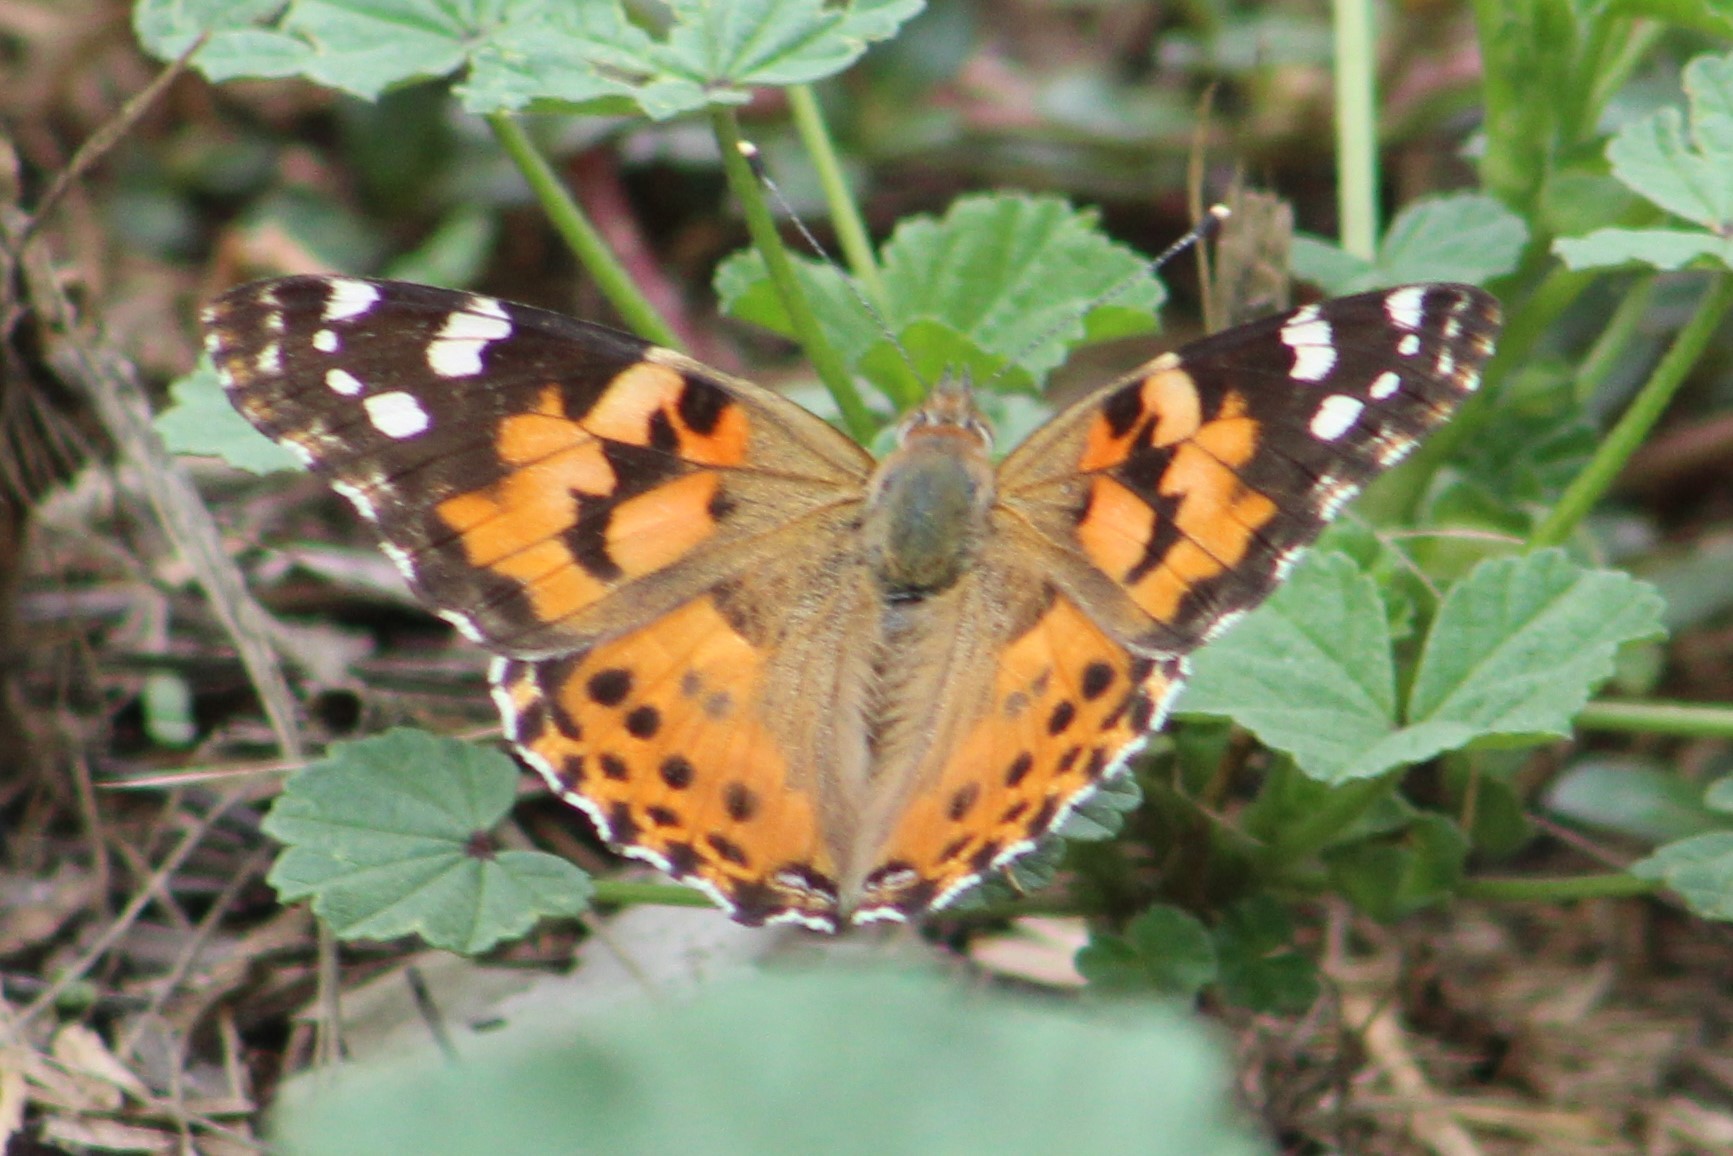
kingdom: Animalia
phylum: Arthropoda
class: Insecta
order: Lepidoptera
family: Nymphalidae
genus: Vanessa
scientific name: Vanessa cardui
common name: Painted lady
